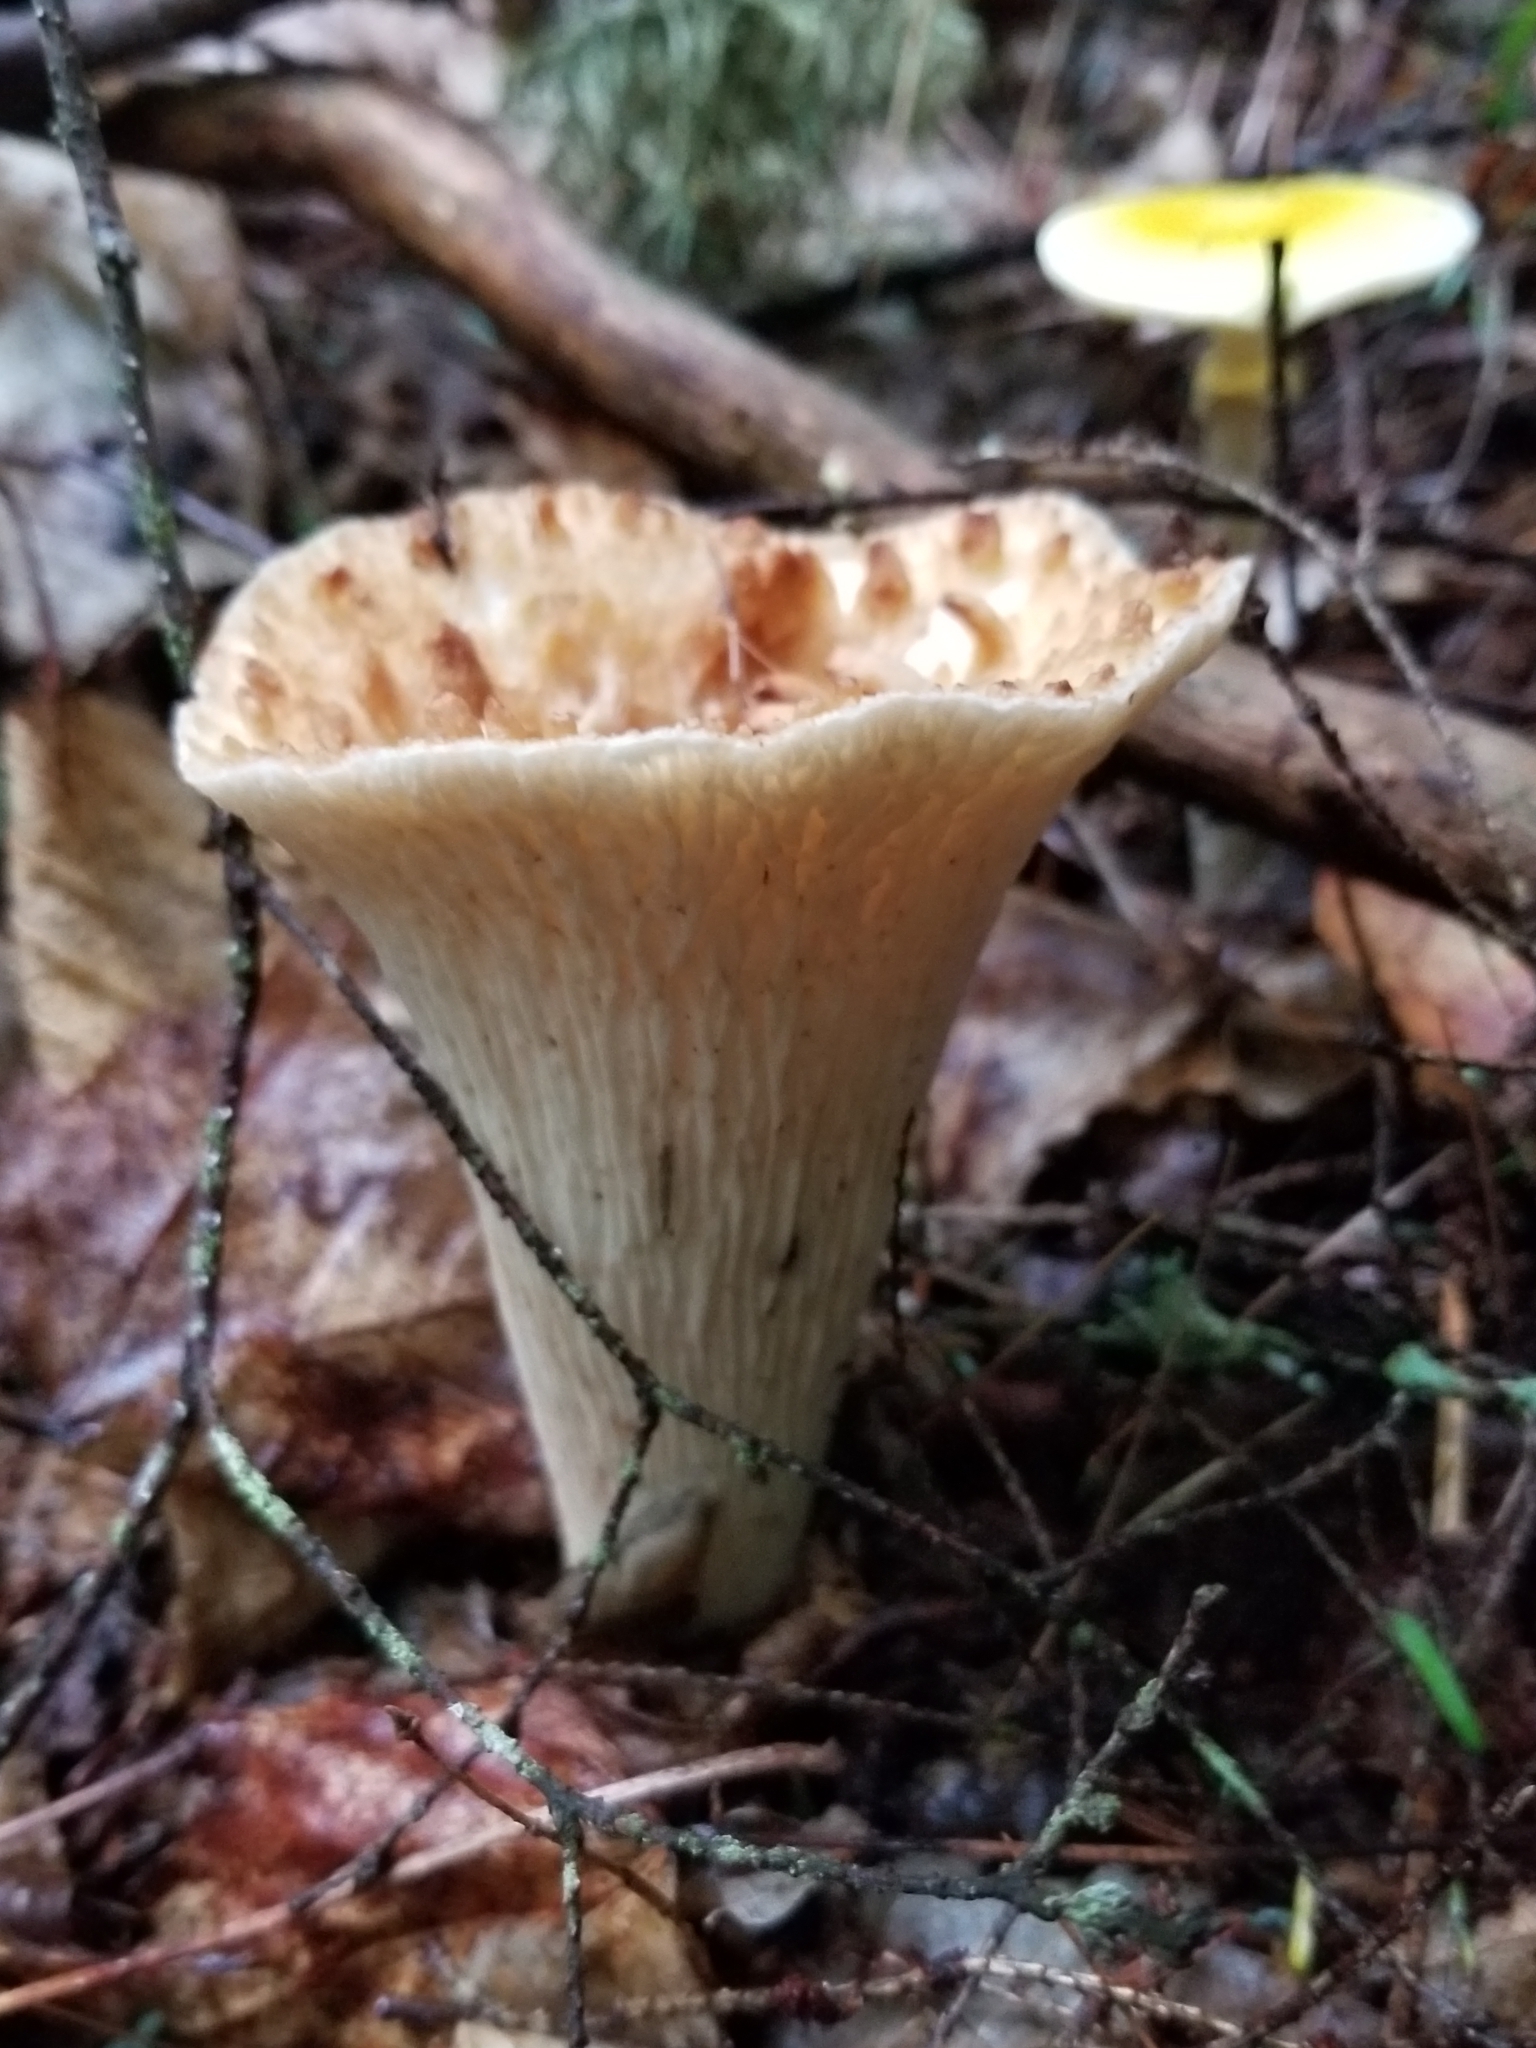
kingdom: Fungi
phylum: Basidiomycota
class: Agaricomycetes
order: Gomphales
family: Gomphaceae
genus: Turbinellus
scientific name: Turbinellus floccosus
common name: Scaly chanterelle
